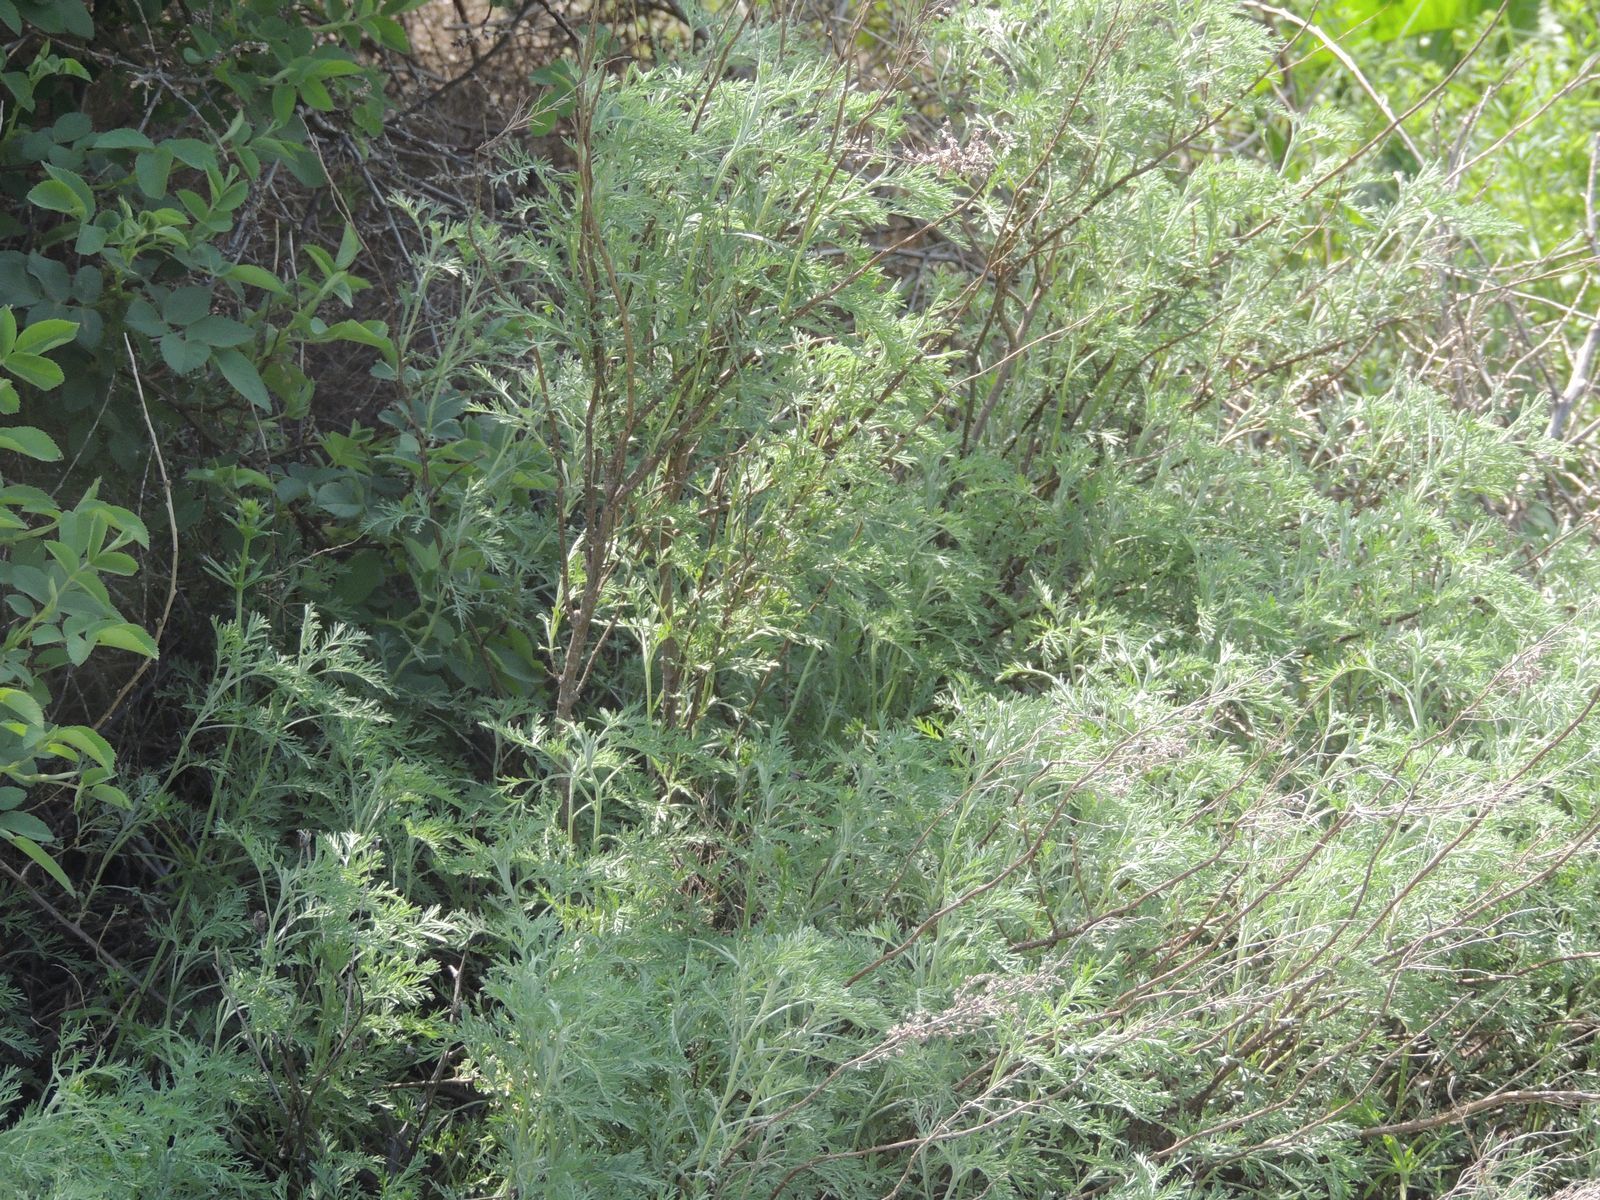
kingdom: Plantae
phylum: Tracheophyta
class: Magnoliopsida
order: Asterales
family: Asteraceae
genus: Artemisia
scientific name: Artemisia abrotanum
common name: Southernwood
